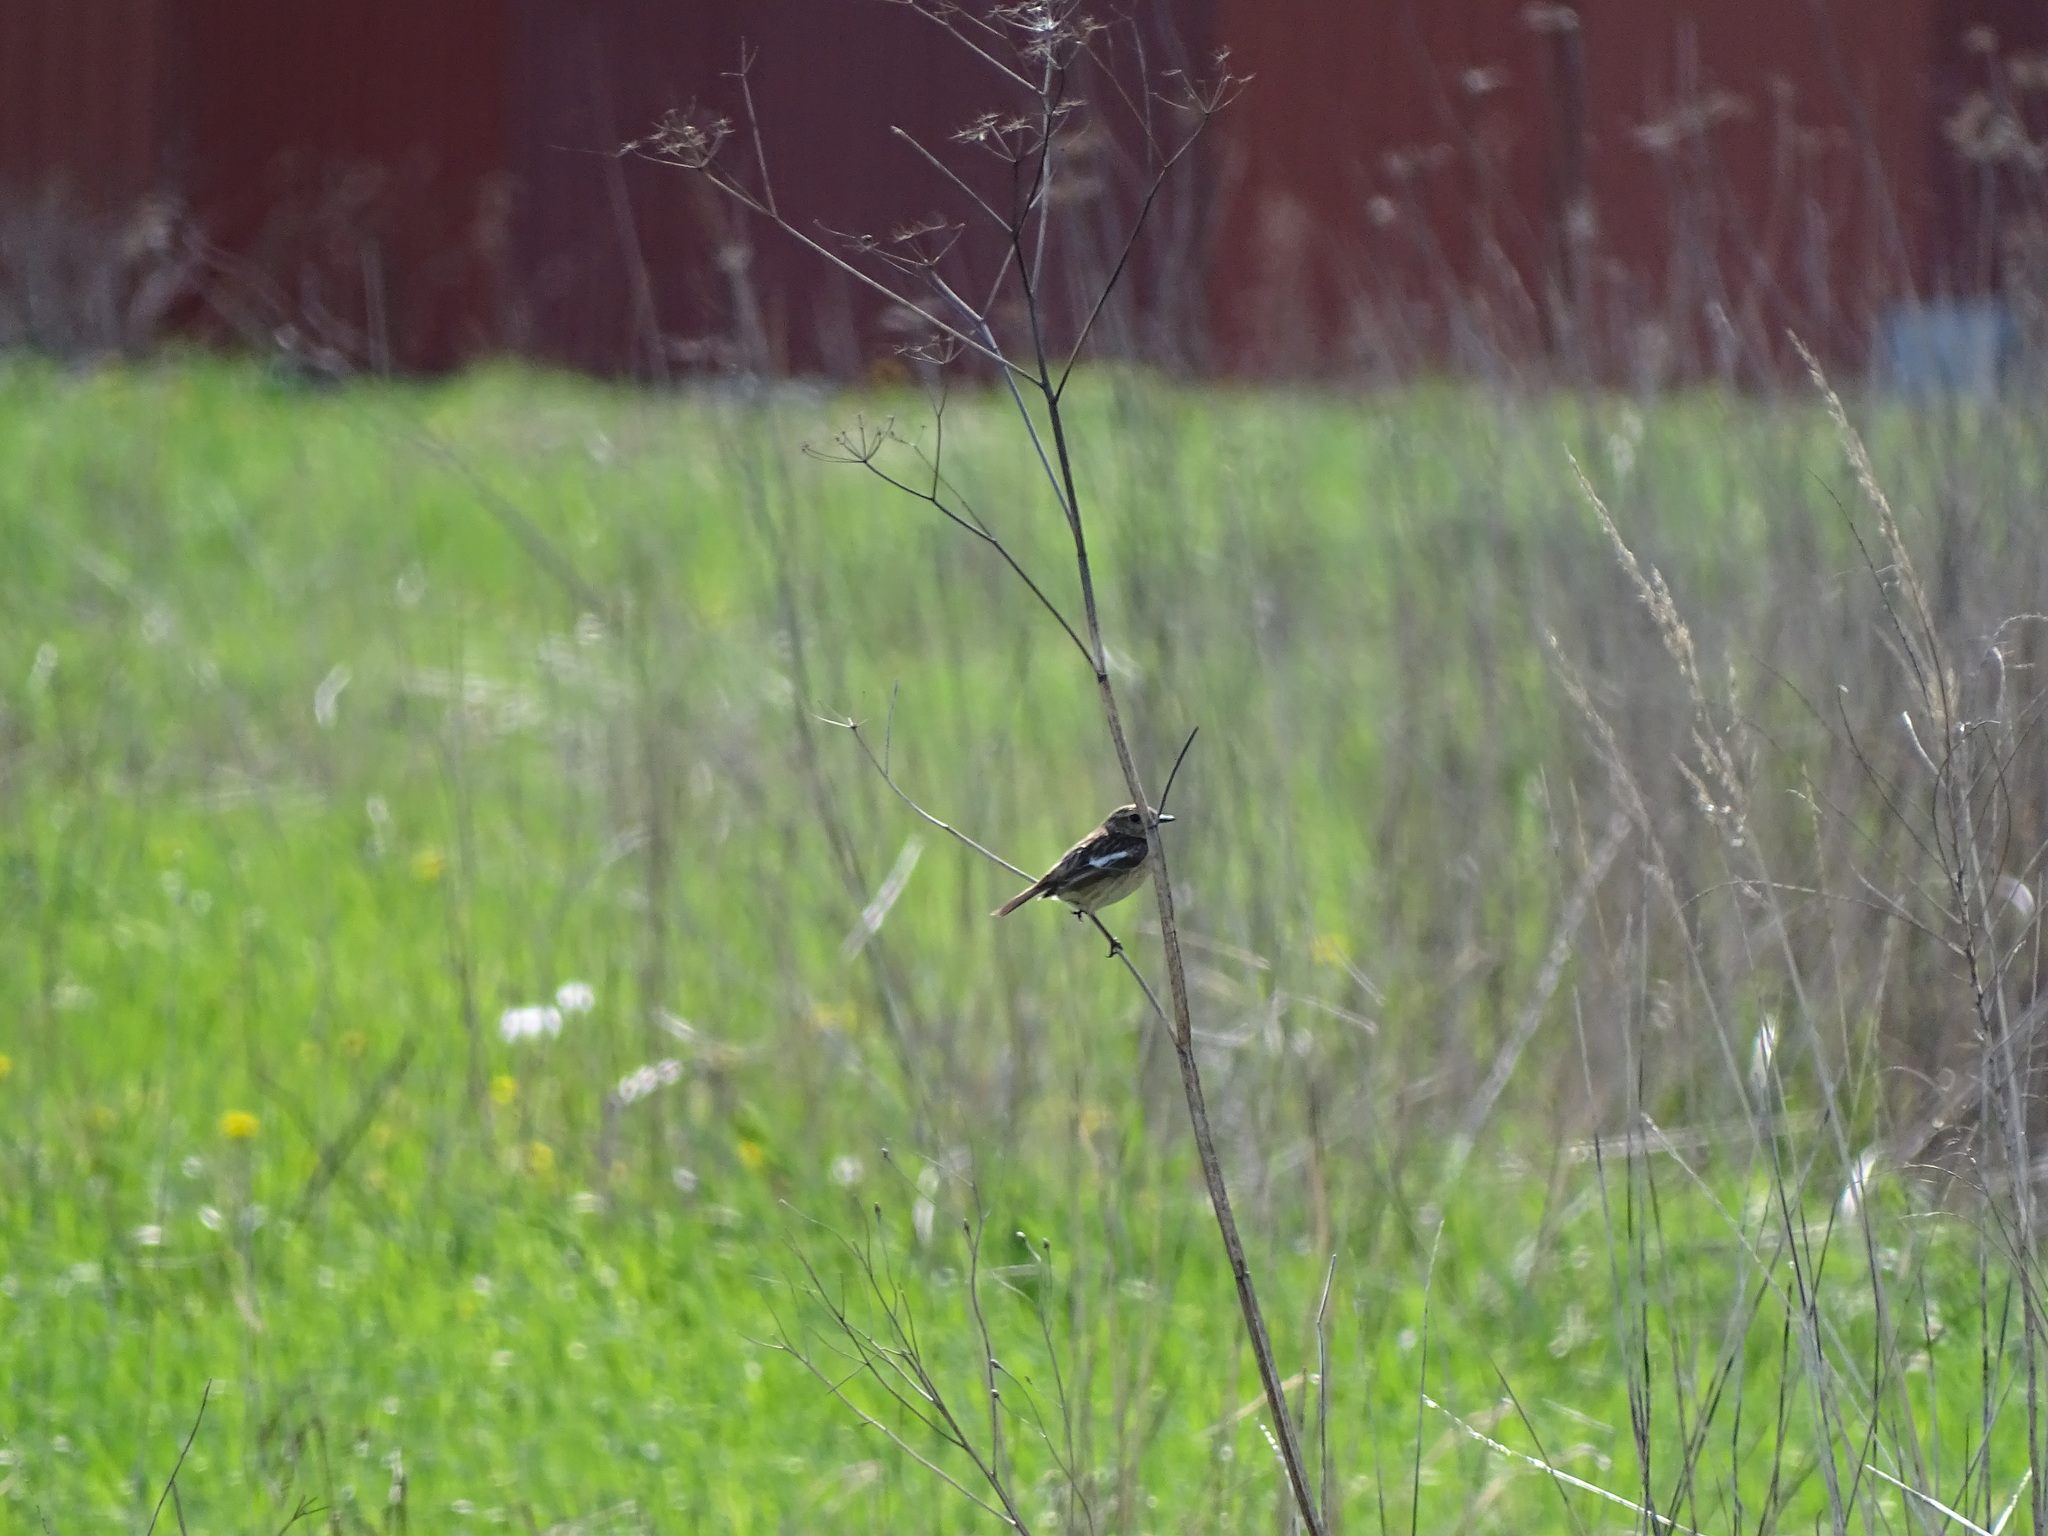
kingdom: Animalia
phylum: Chordata
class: Aves
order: Passeriformes
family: Muscicapidae
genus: Saxicola
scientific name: Saxicola rubetra
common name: Whinchat
